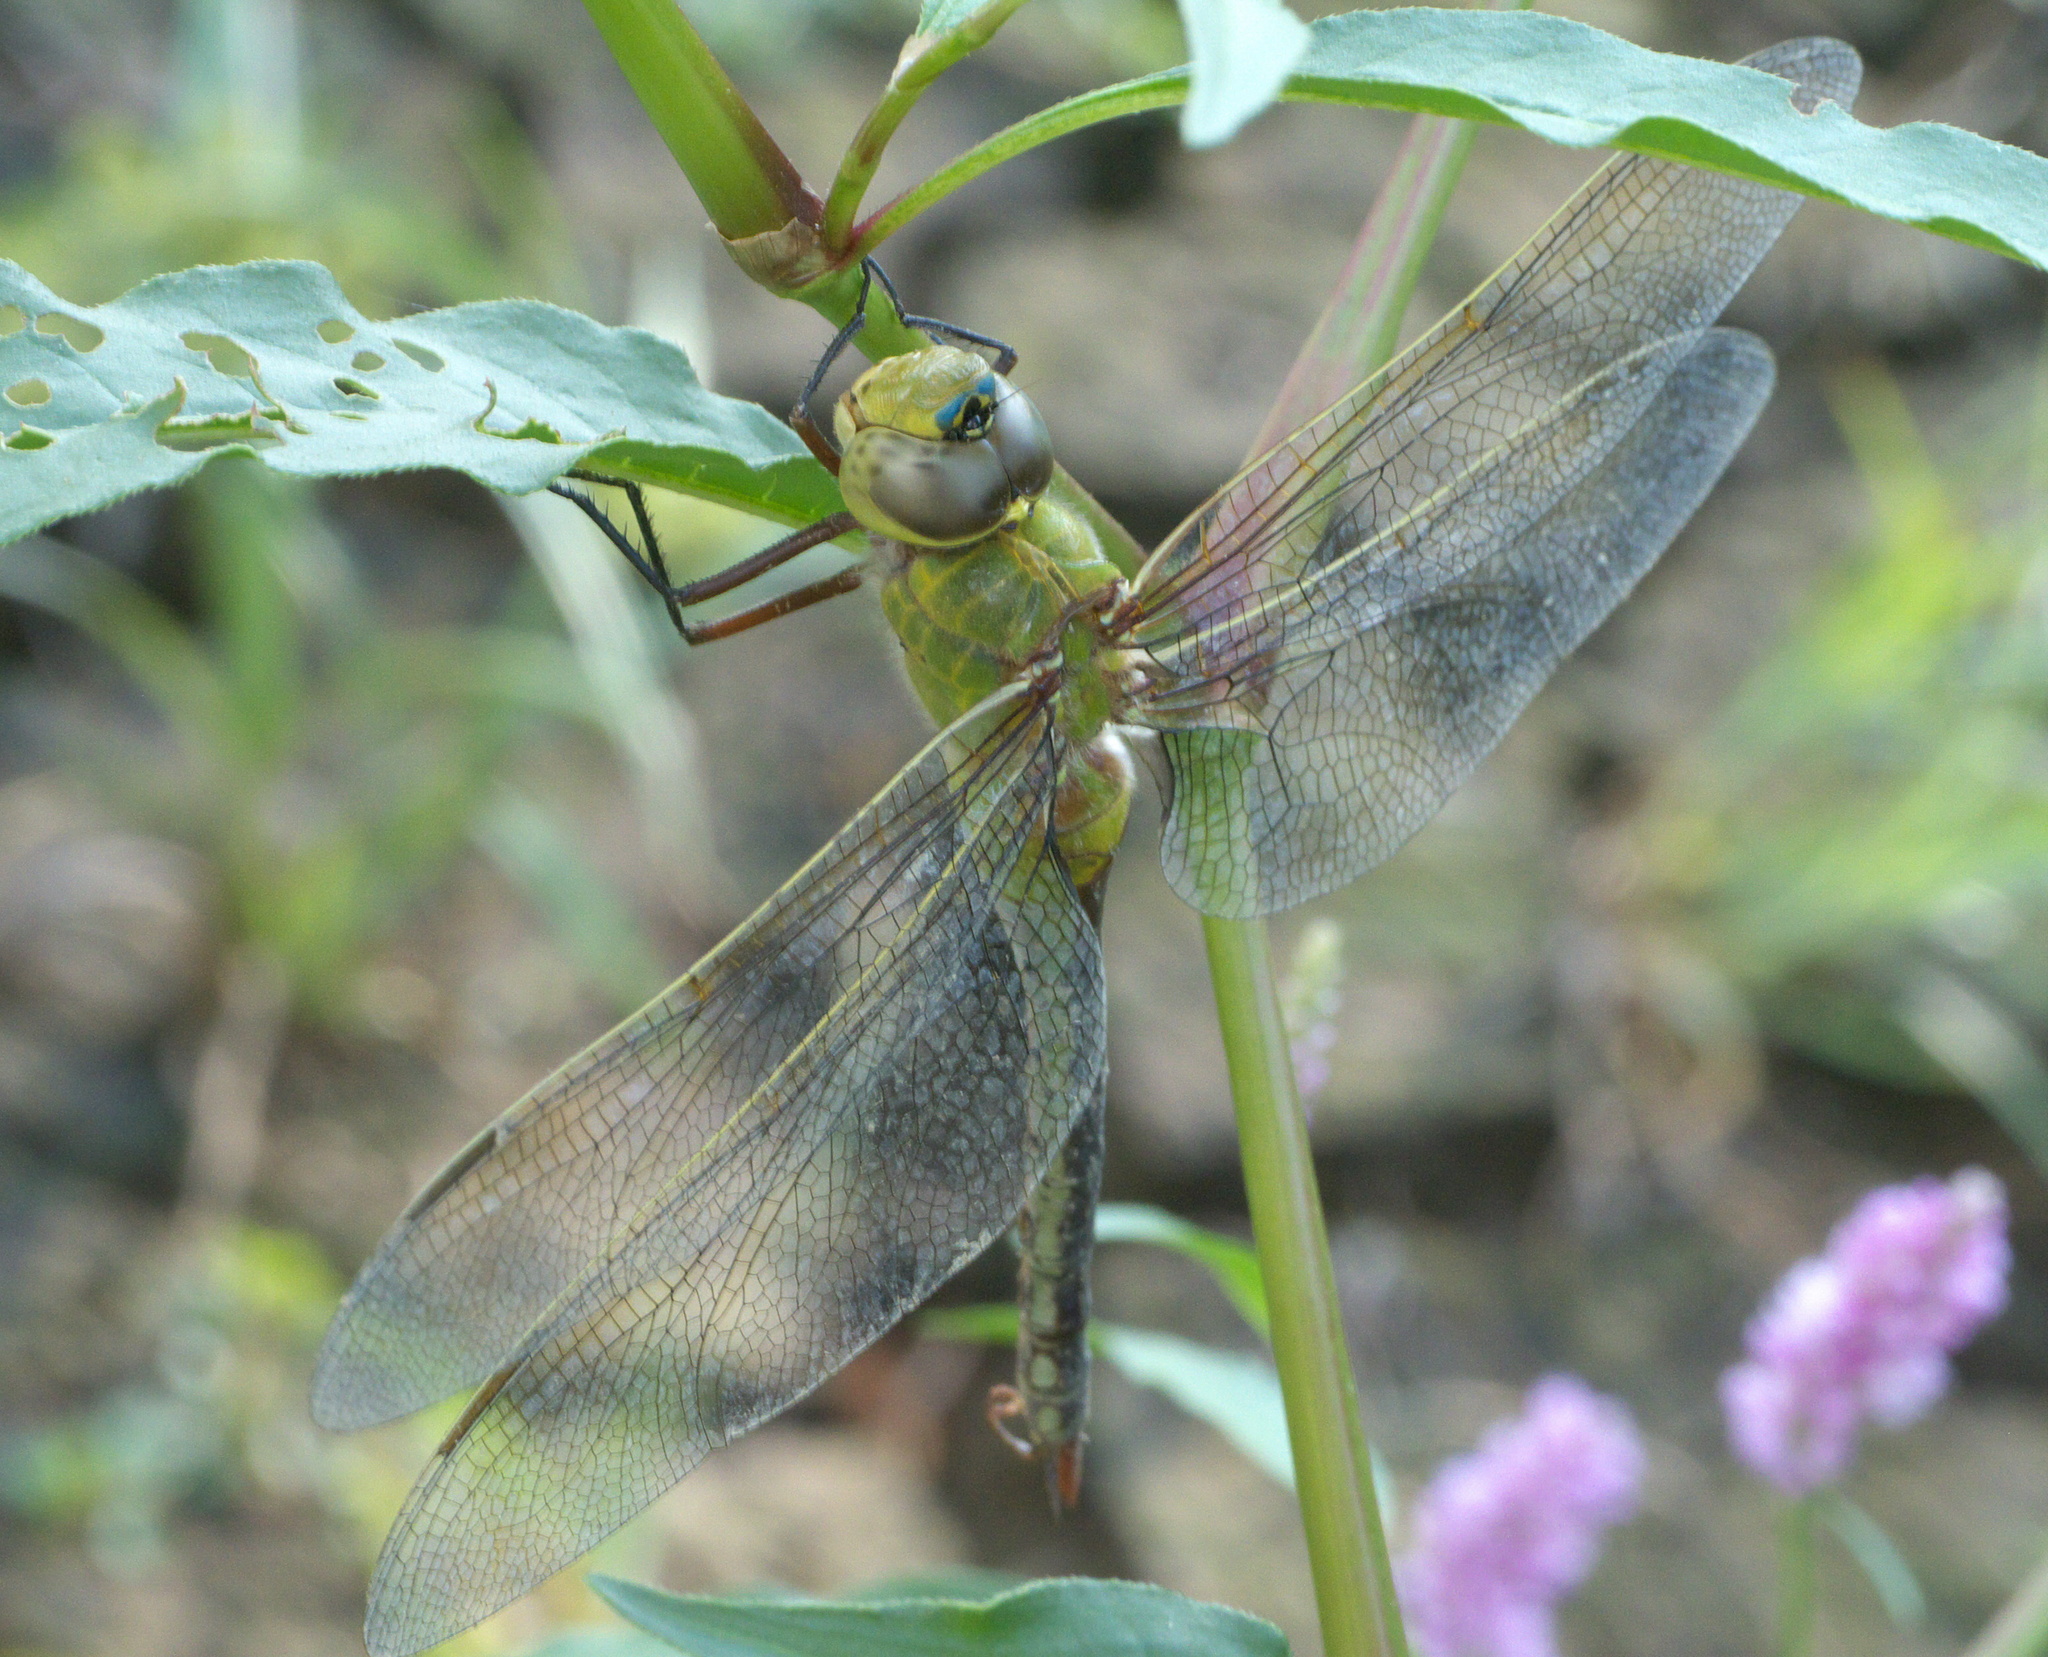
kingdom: Animalia
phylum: Arthropoda
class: Insecta
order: Odonata
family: Aeshnidae
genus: Anax
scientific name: Anax junius
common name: Common green darner
